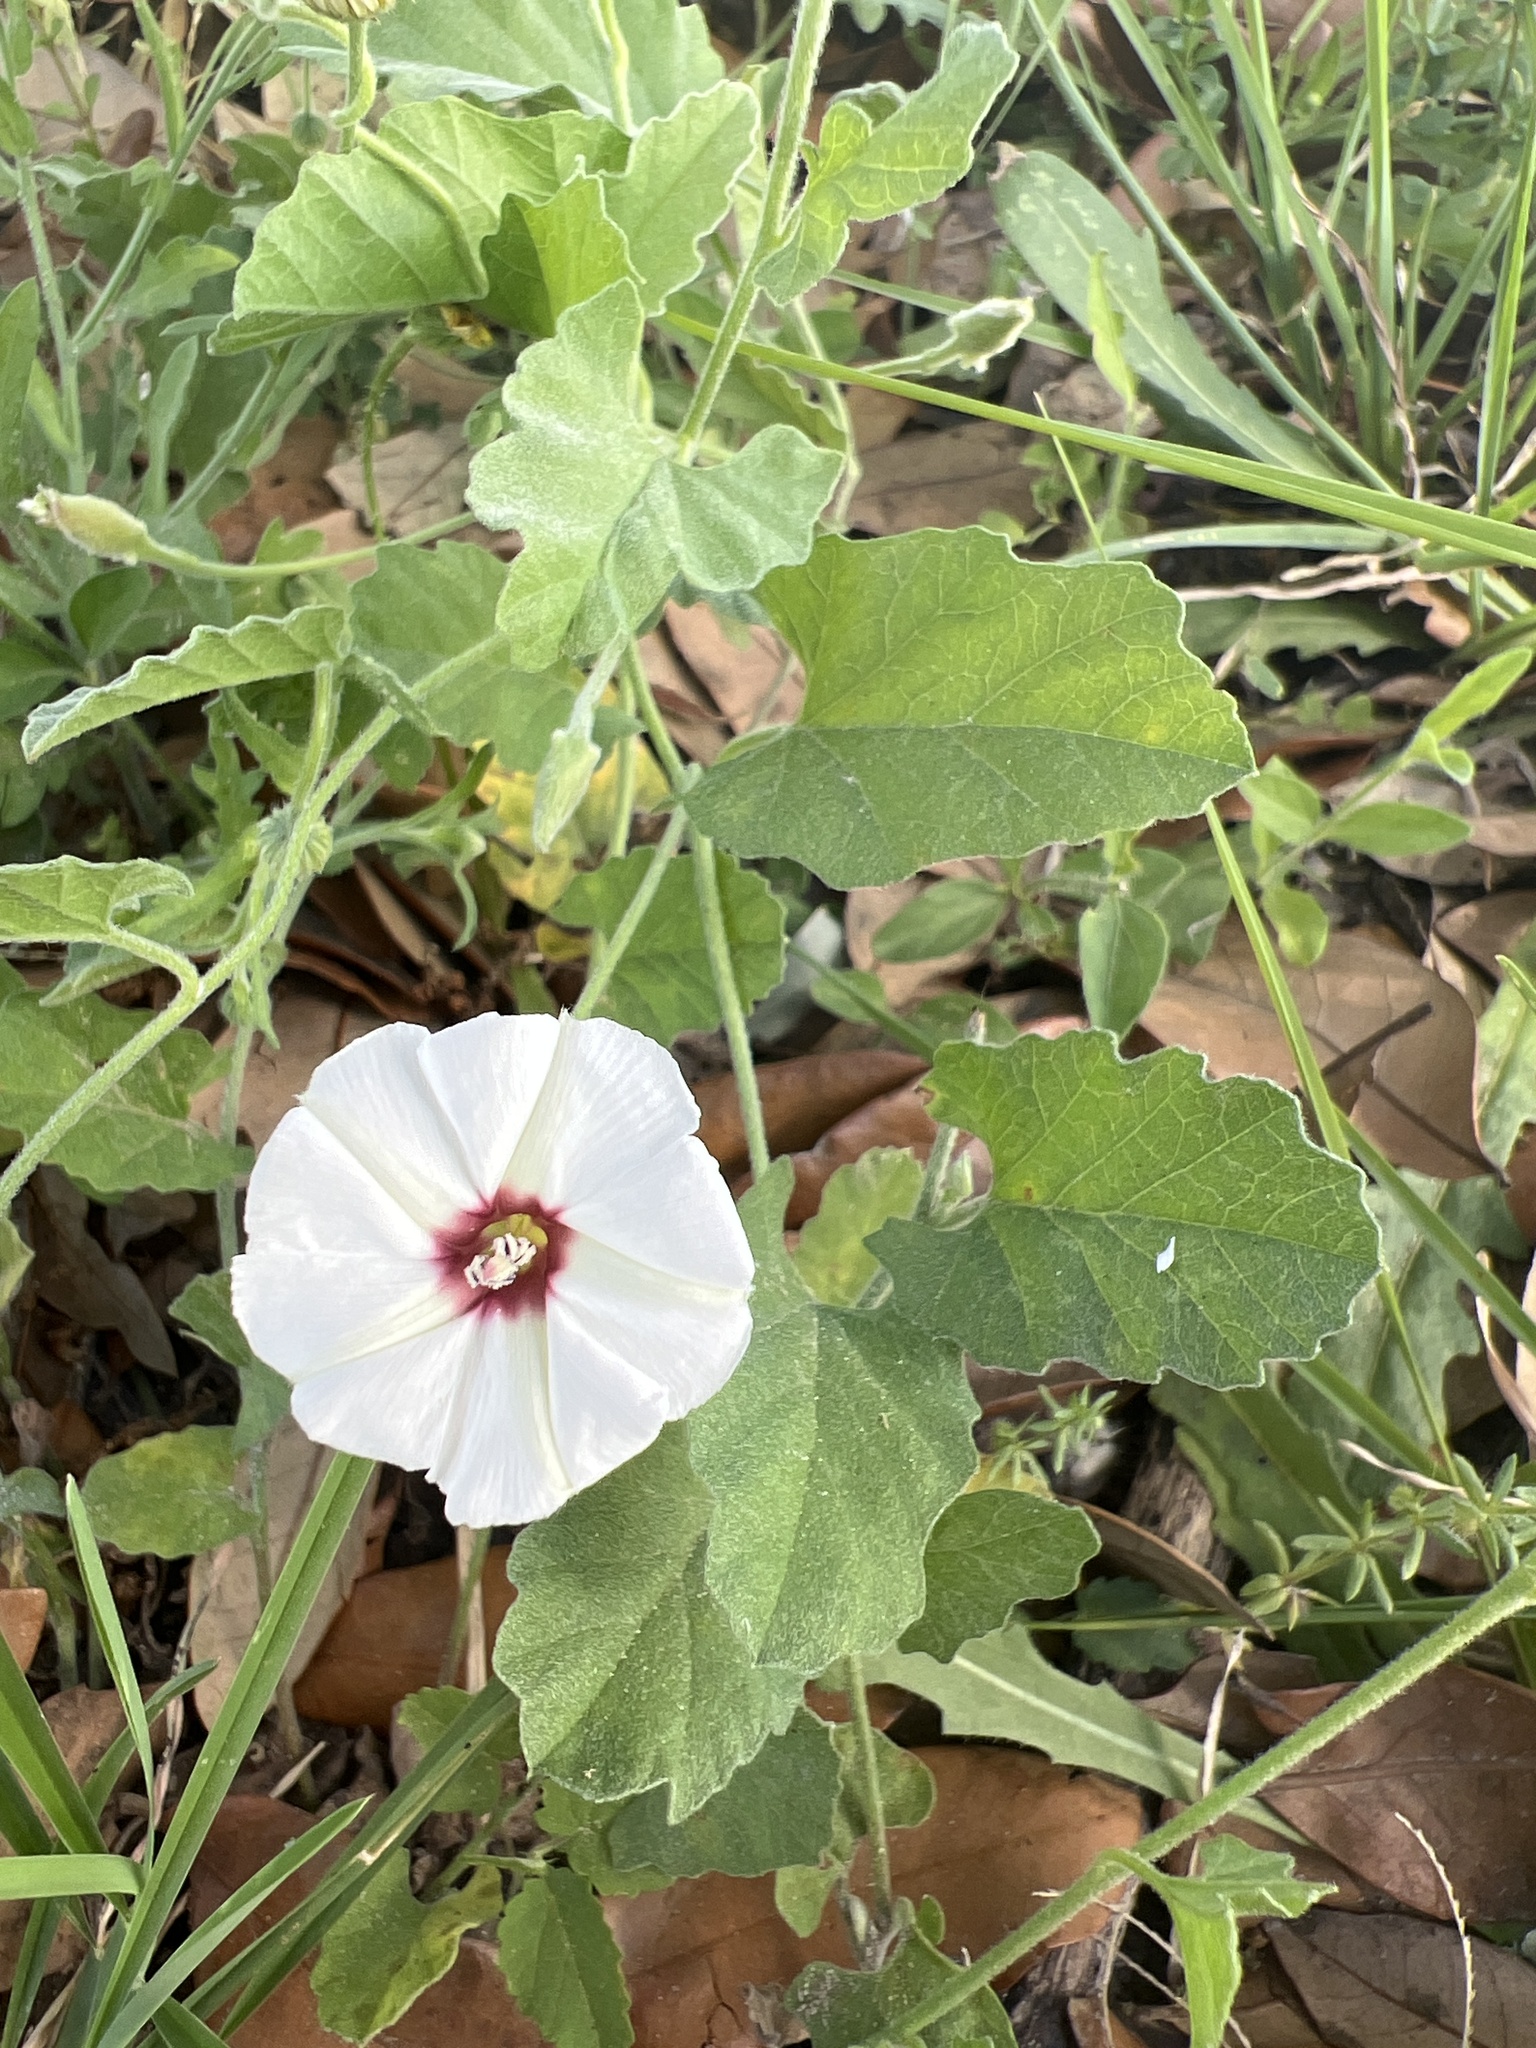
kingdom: Plantae
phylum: Tracheophyta
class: Magnoliopsida
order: Solanales
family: Convolvulaceae
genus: Convolvulus
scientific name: Convolvulus equitans
